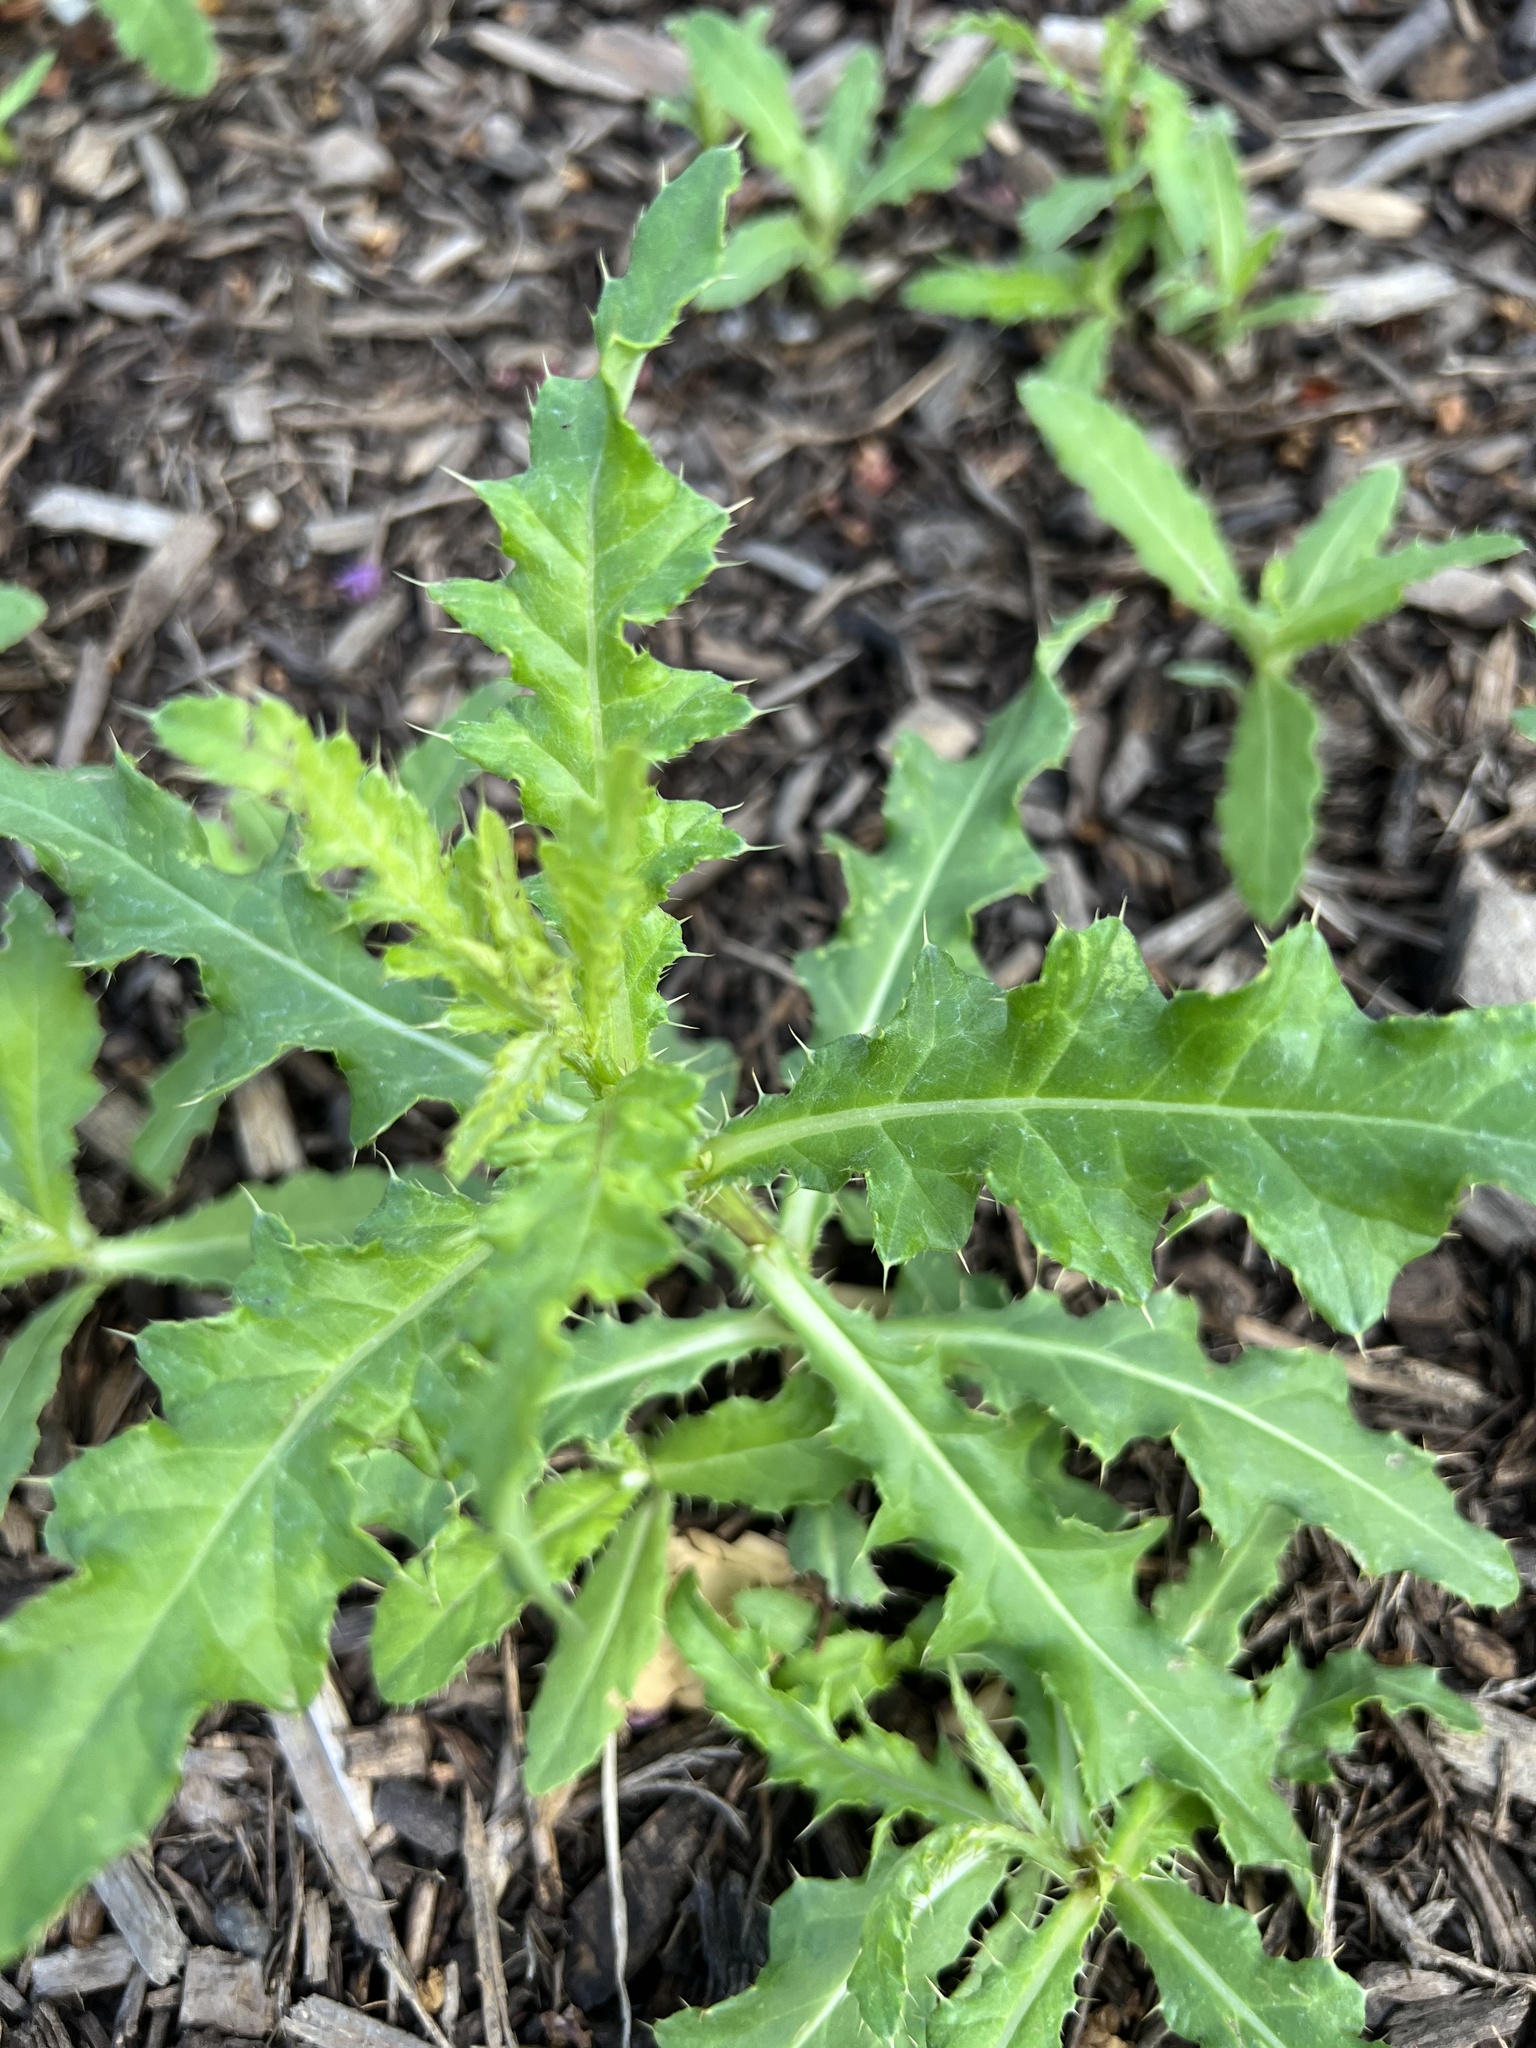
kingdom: Plantae
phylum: Tracheophyta
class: Magnoliopsida
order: Asterales
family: Asteraceae
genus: Cirsium
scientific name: Cirsium arvense
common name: Creeping thistle
